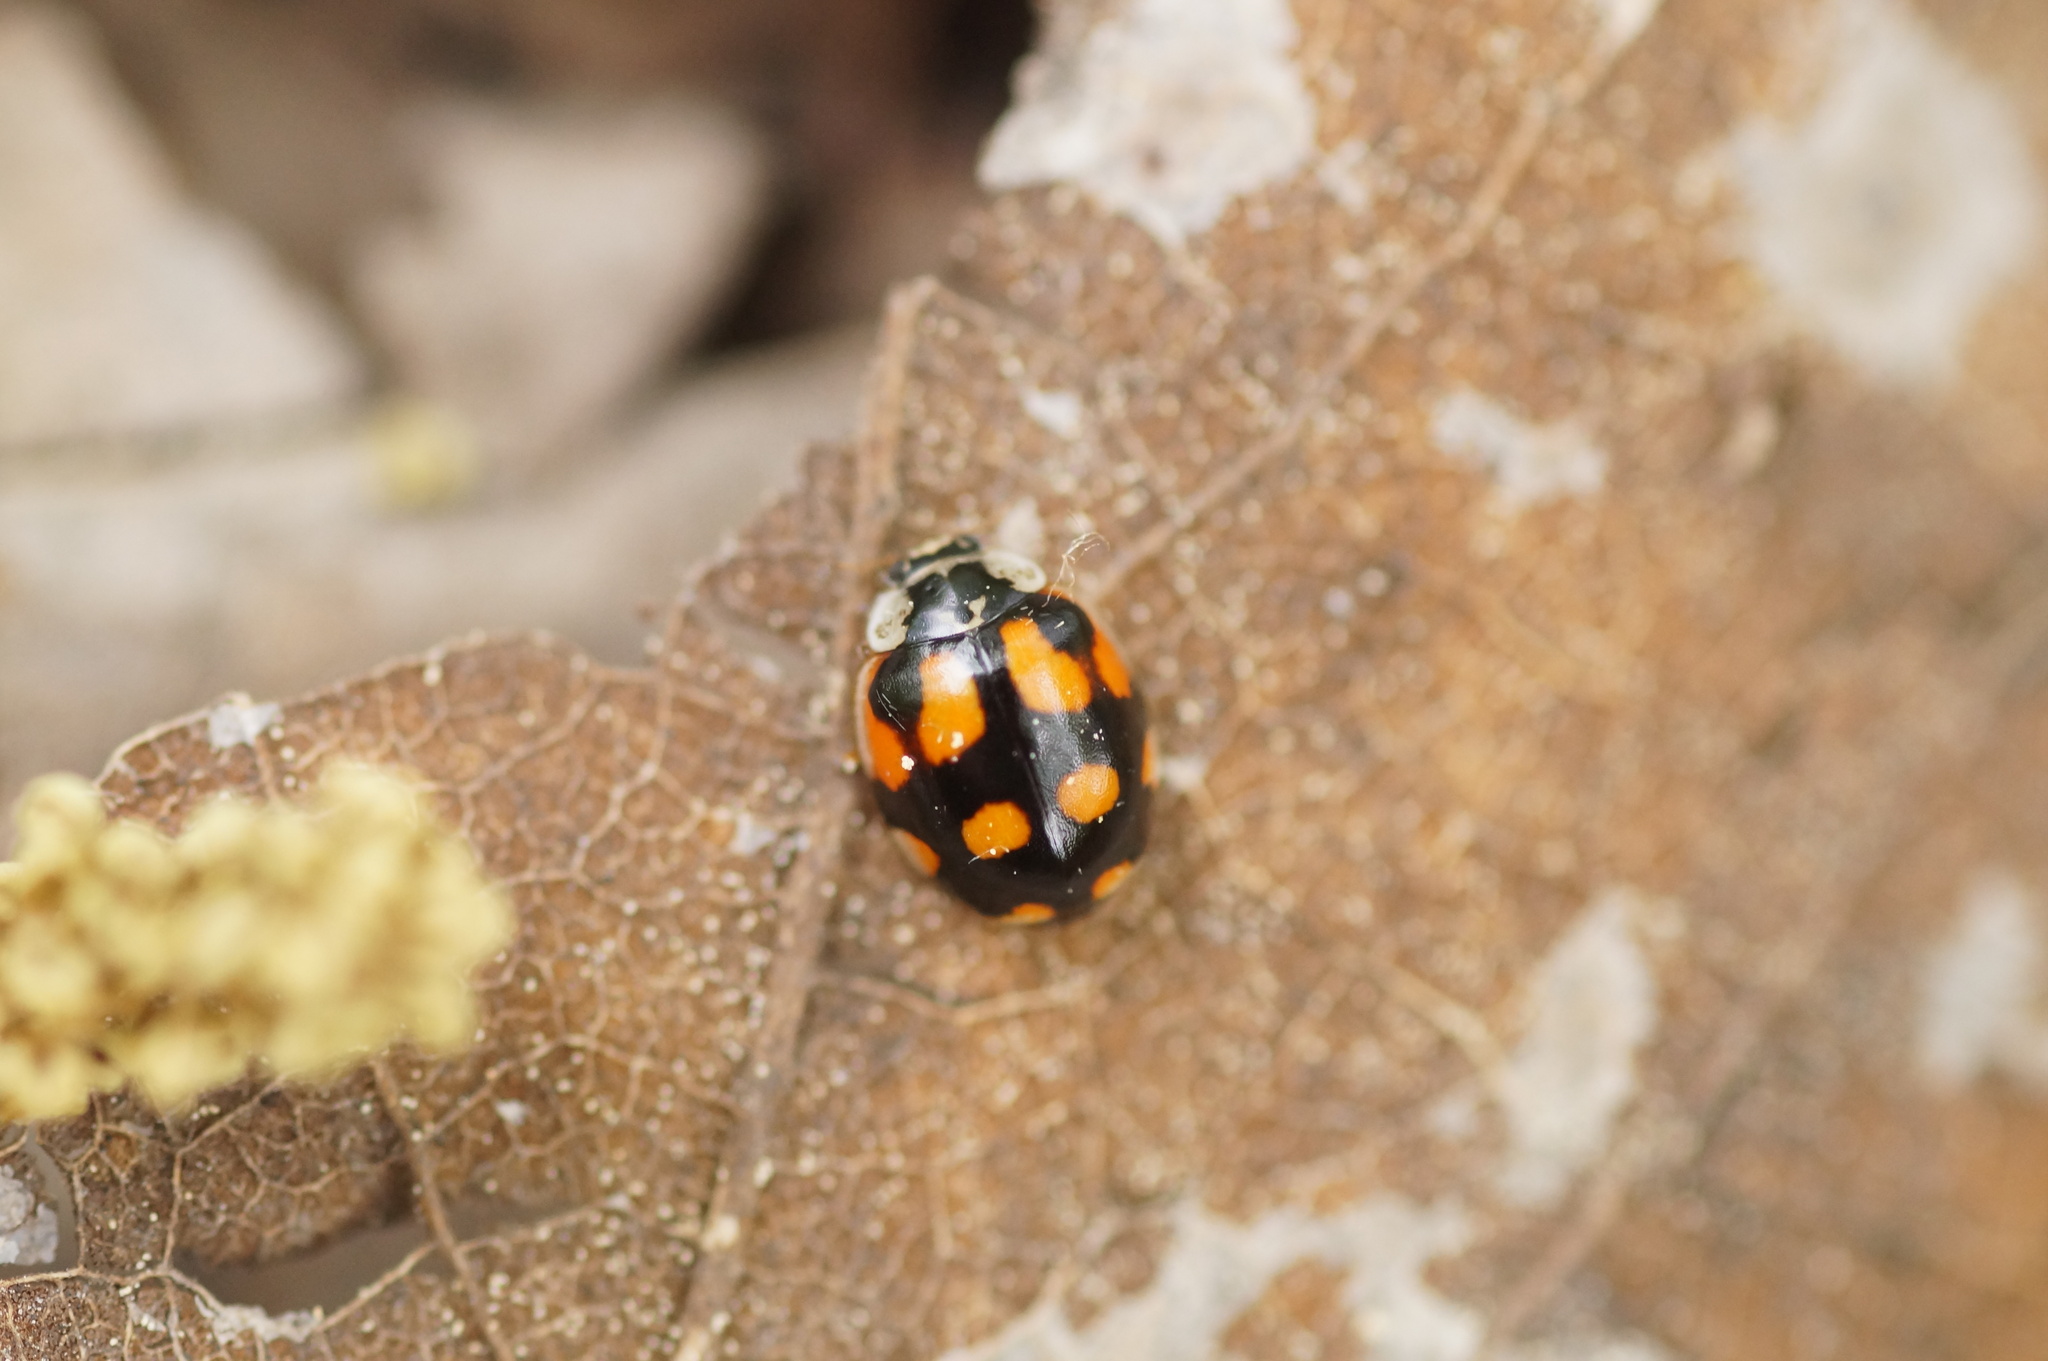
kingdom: Animalia
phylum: Arthropoda
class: Insecta
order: Coleoptera
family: Coccinellidae
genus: Adalia
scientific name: Adalia decempunctata
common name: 10-spot ladybird
